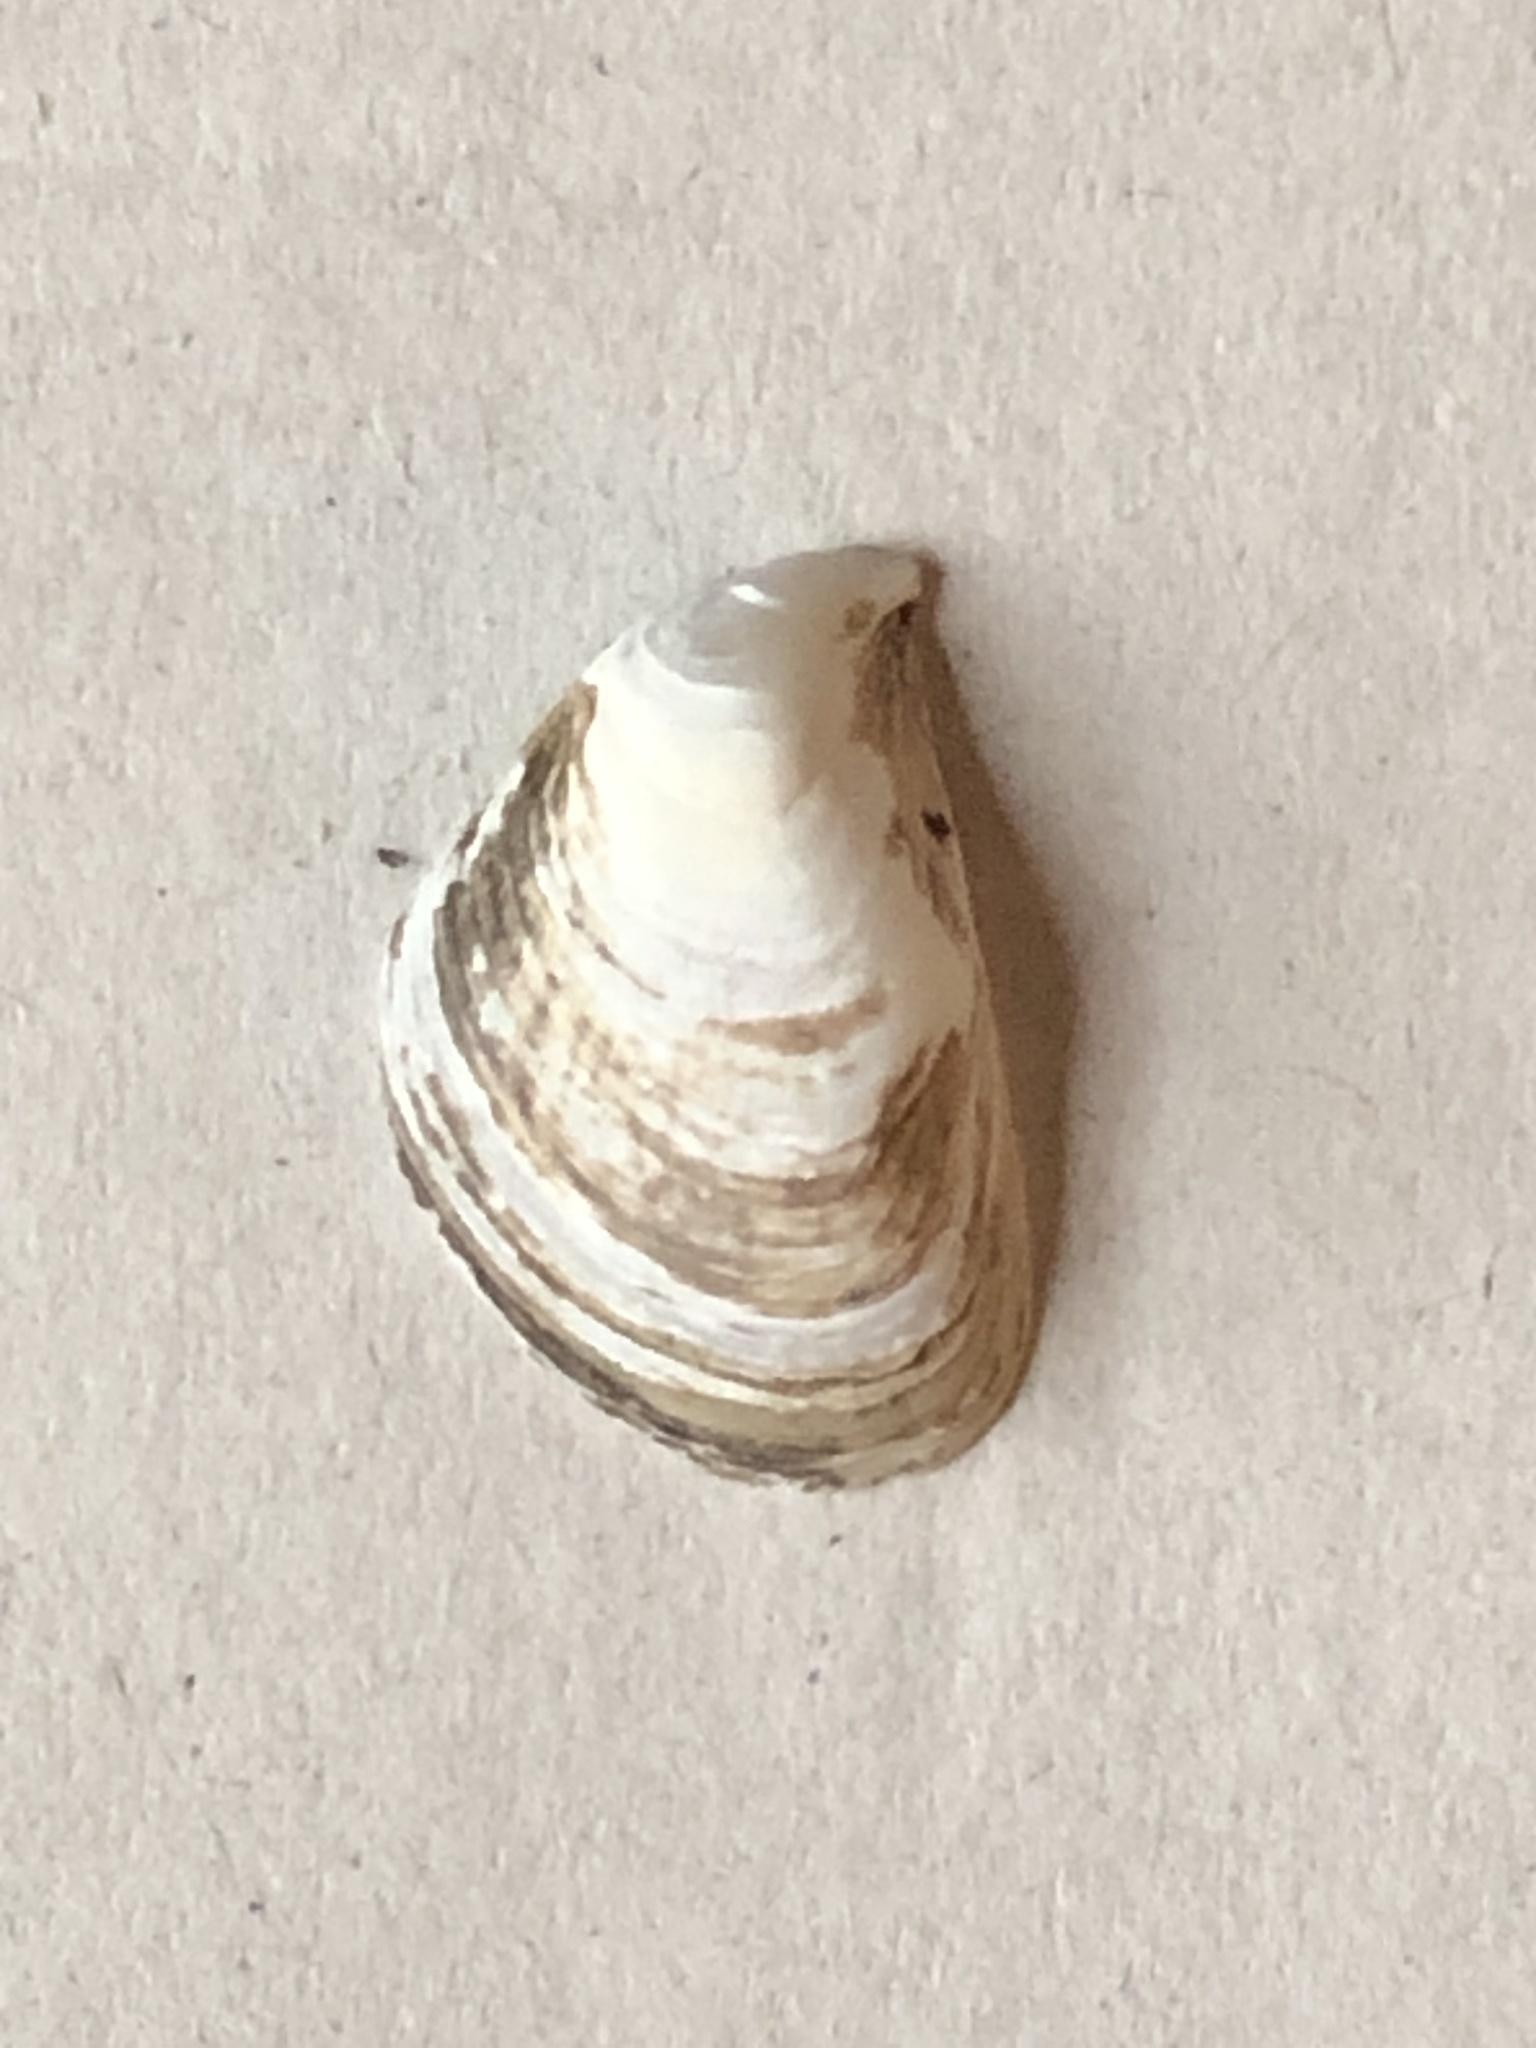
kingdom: Animalia
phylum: Mollusca
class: Bivalvia
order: Myida
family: Dreissenidae
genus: Dreissena
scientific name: Dreissena bugensis
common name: Quagga mussel
